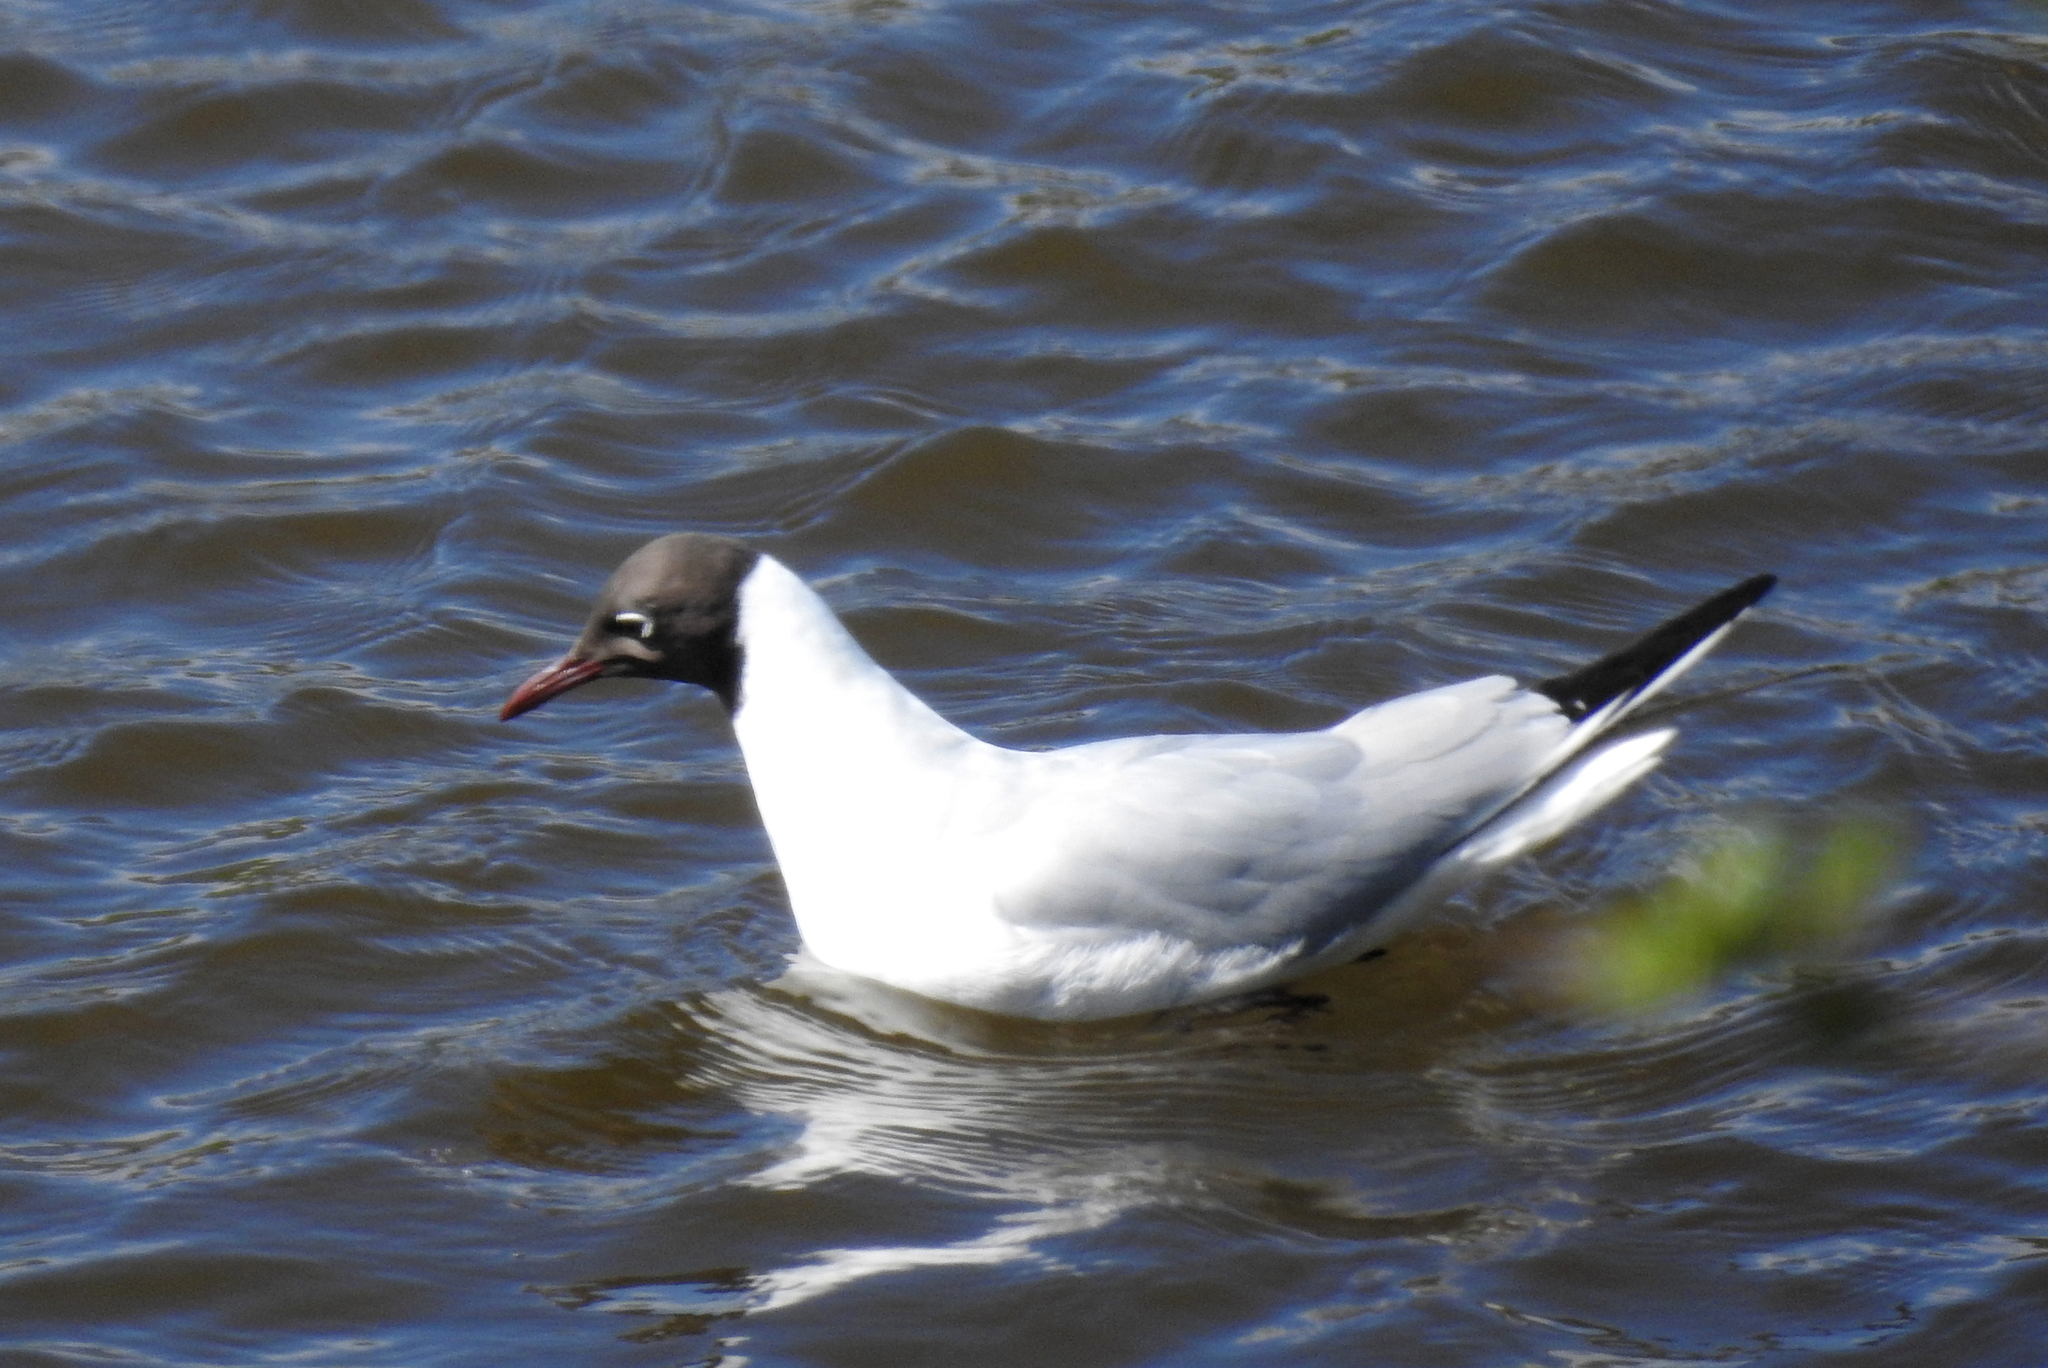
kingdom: Animalia
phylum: Chordata
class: Aves
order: Charadriiformes
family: Laridae
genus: Chroicocephalus
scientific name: Chroicocephalus ridibundus
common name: Black-headed gull
